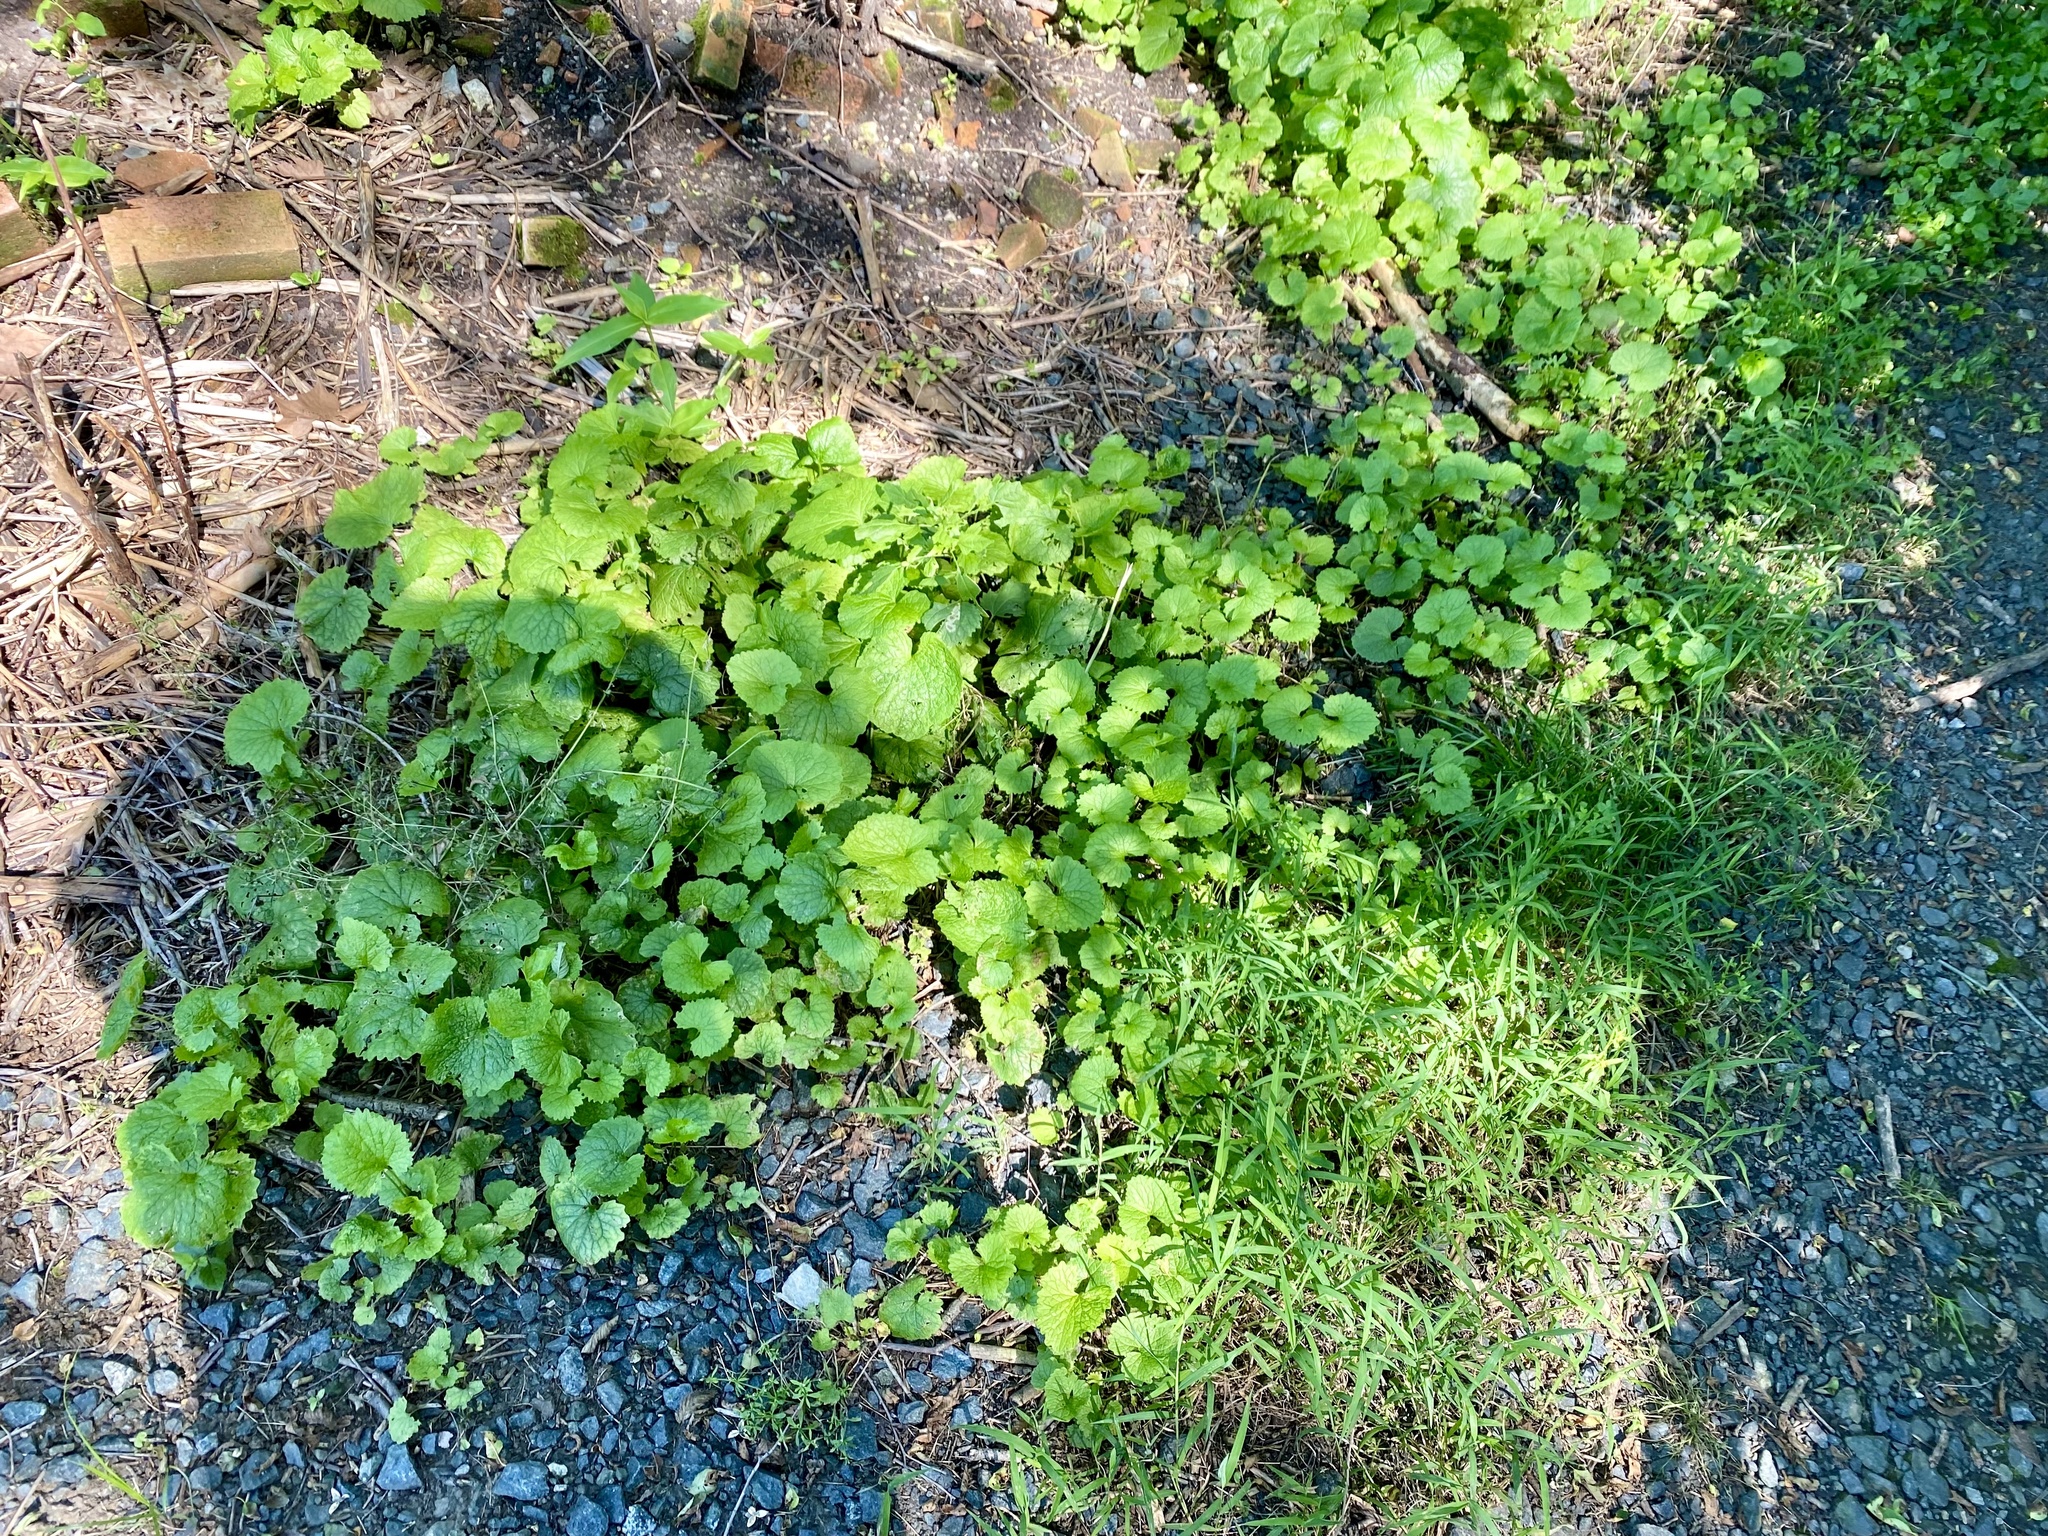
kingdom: Plantae
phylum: Tracheophyta
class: Magnoliopsida
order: Brassicales
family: Brassicaceae
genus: Alliaria
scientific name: Alliaria petiolata
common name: Garlic mustard
